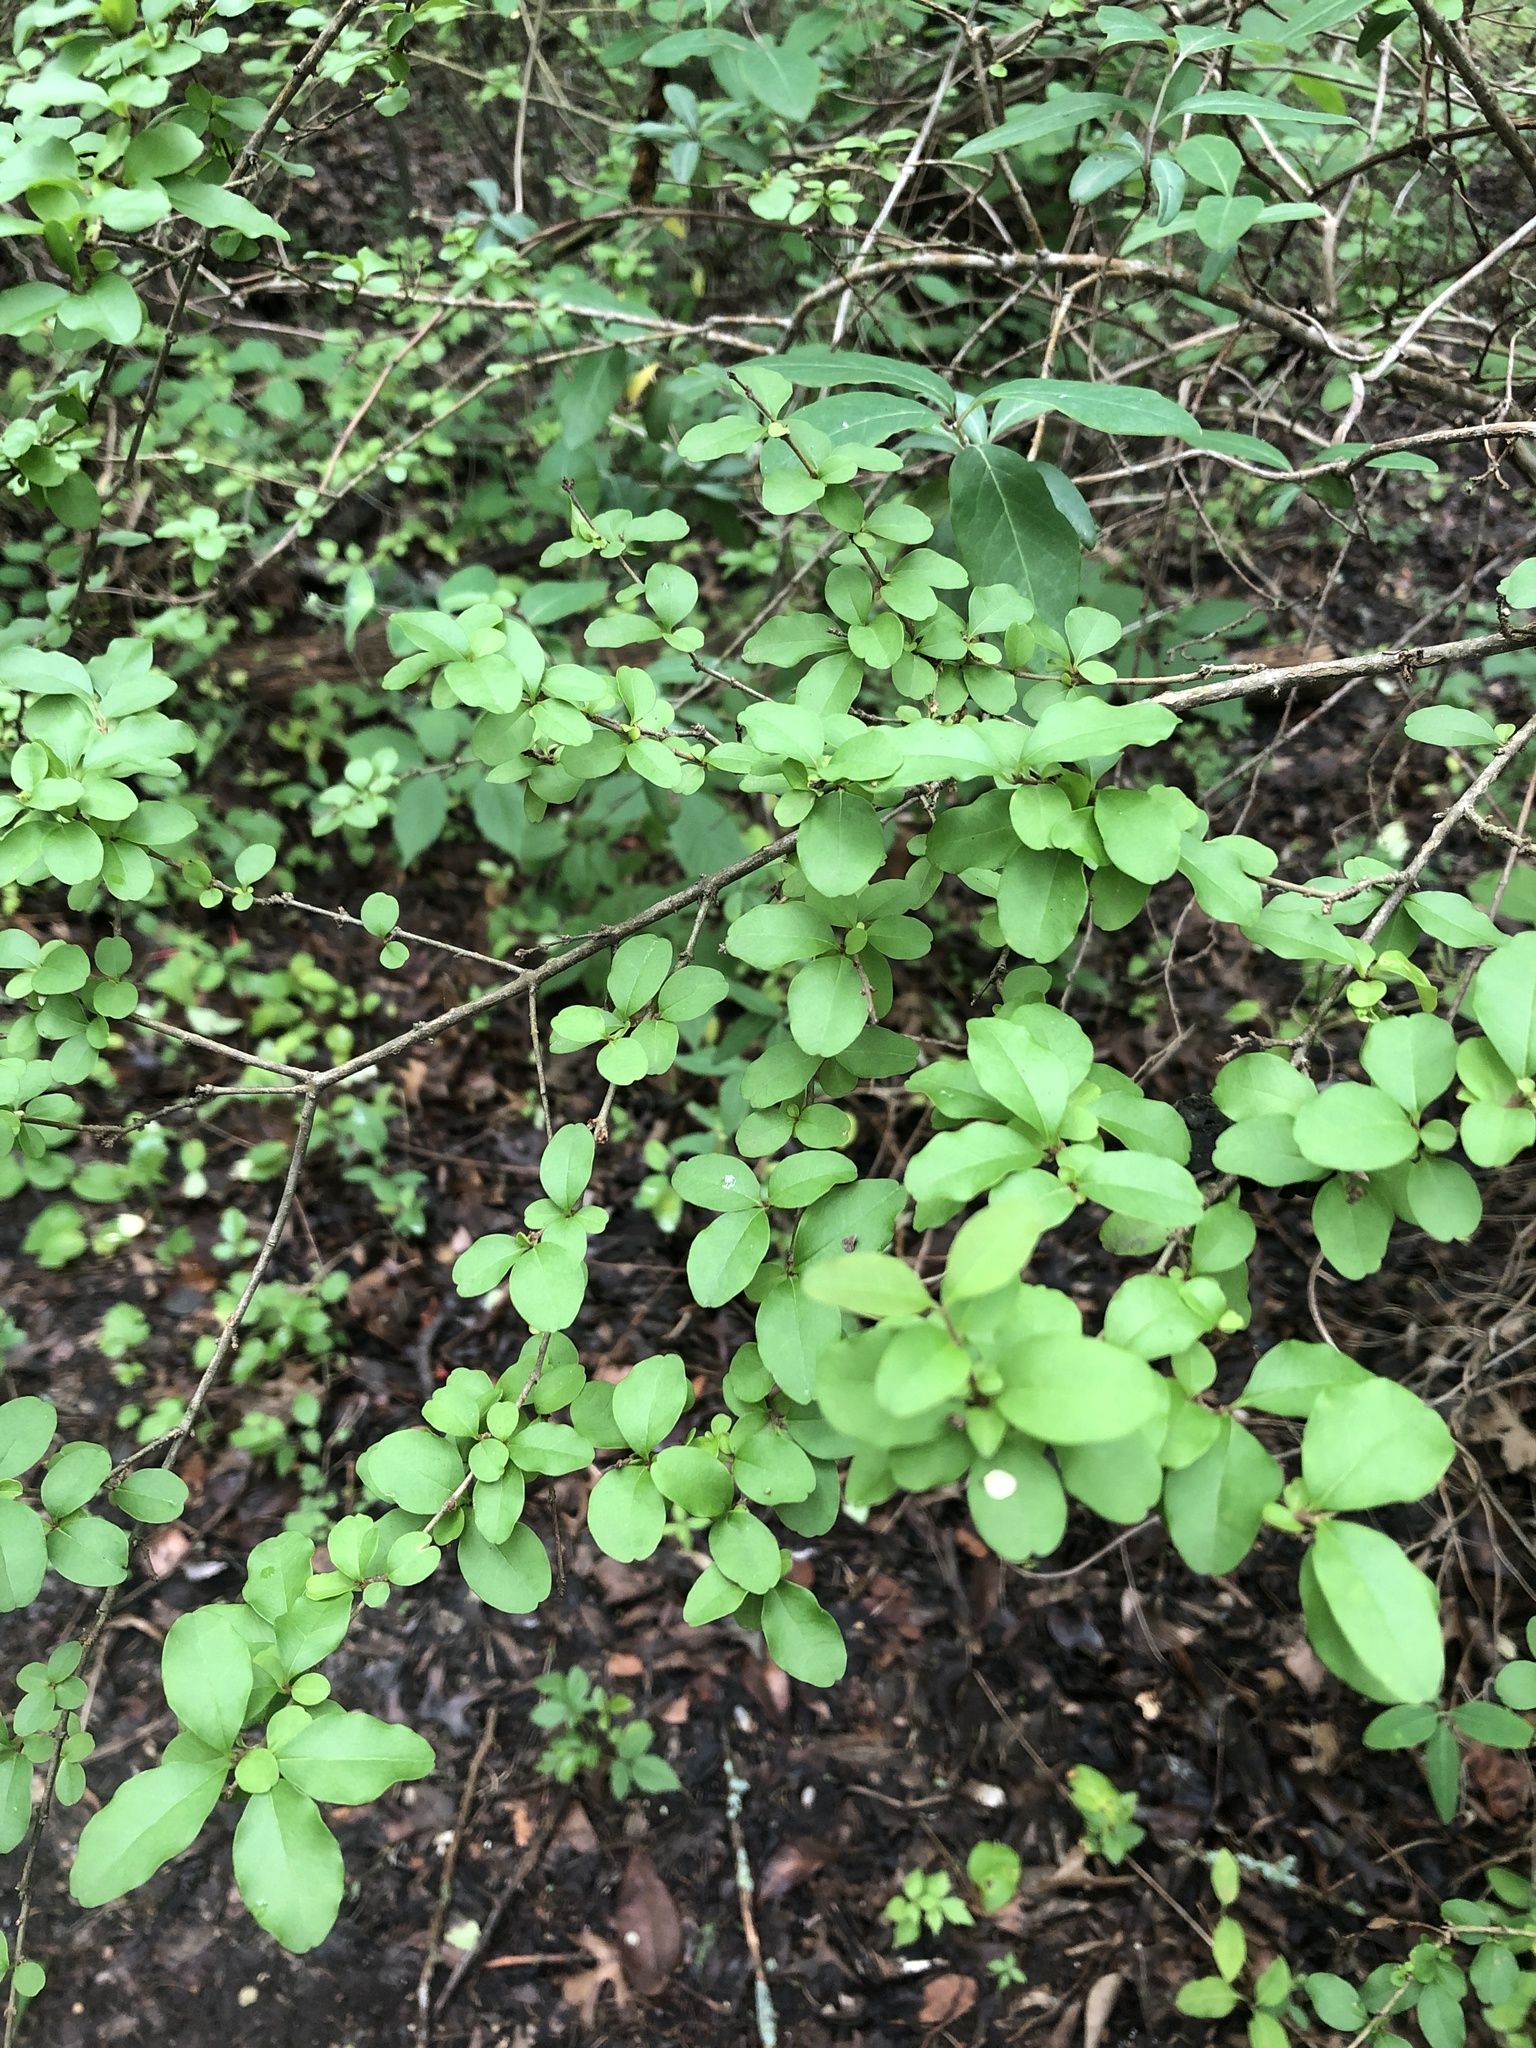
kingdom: Plantae
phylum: Tracheophyta
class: Magnoliopsida
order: Lamiales
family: Oleaceae
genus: Ligustrum
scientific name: Ligustrum sinense
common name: Chinese privet
